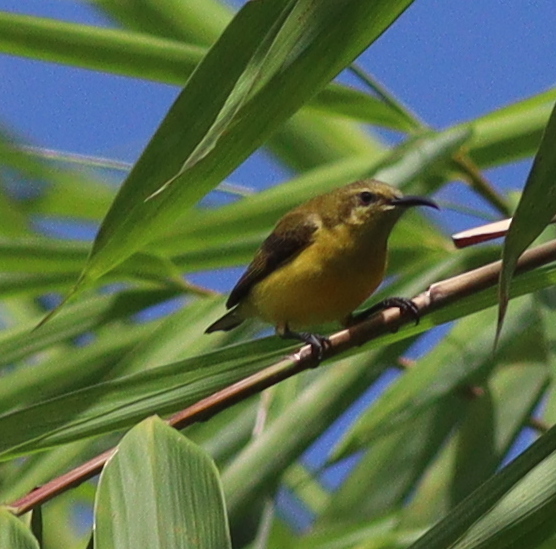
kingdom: Animalia
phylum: Chordata
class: Aves
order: Passeriformes
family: Nectariniidae
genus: Cinnyris
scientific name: Cinnyris
